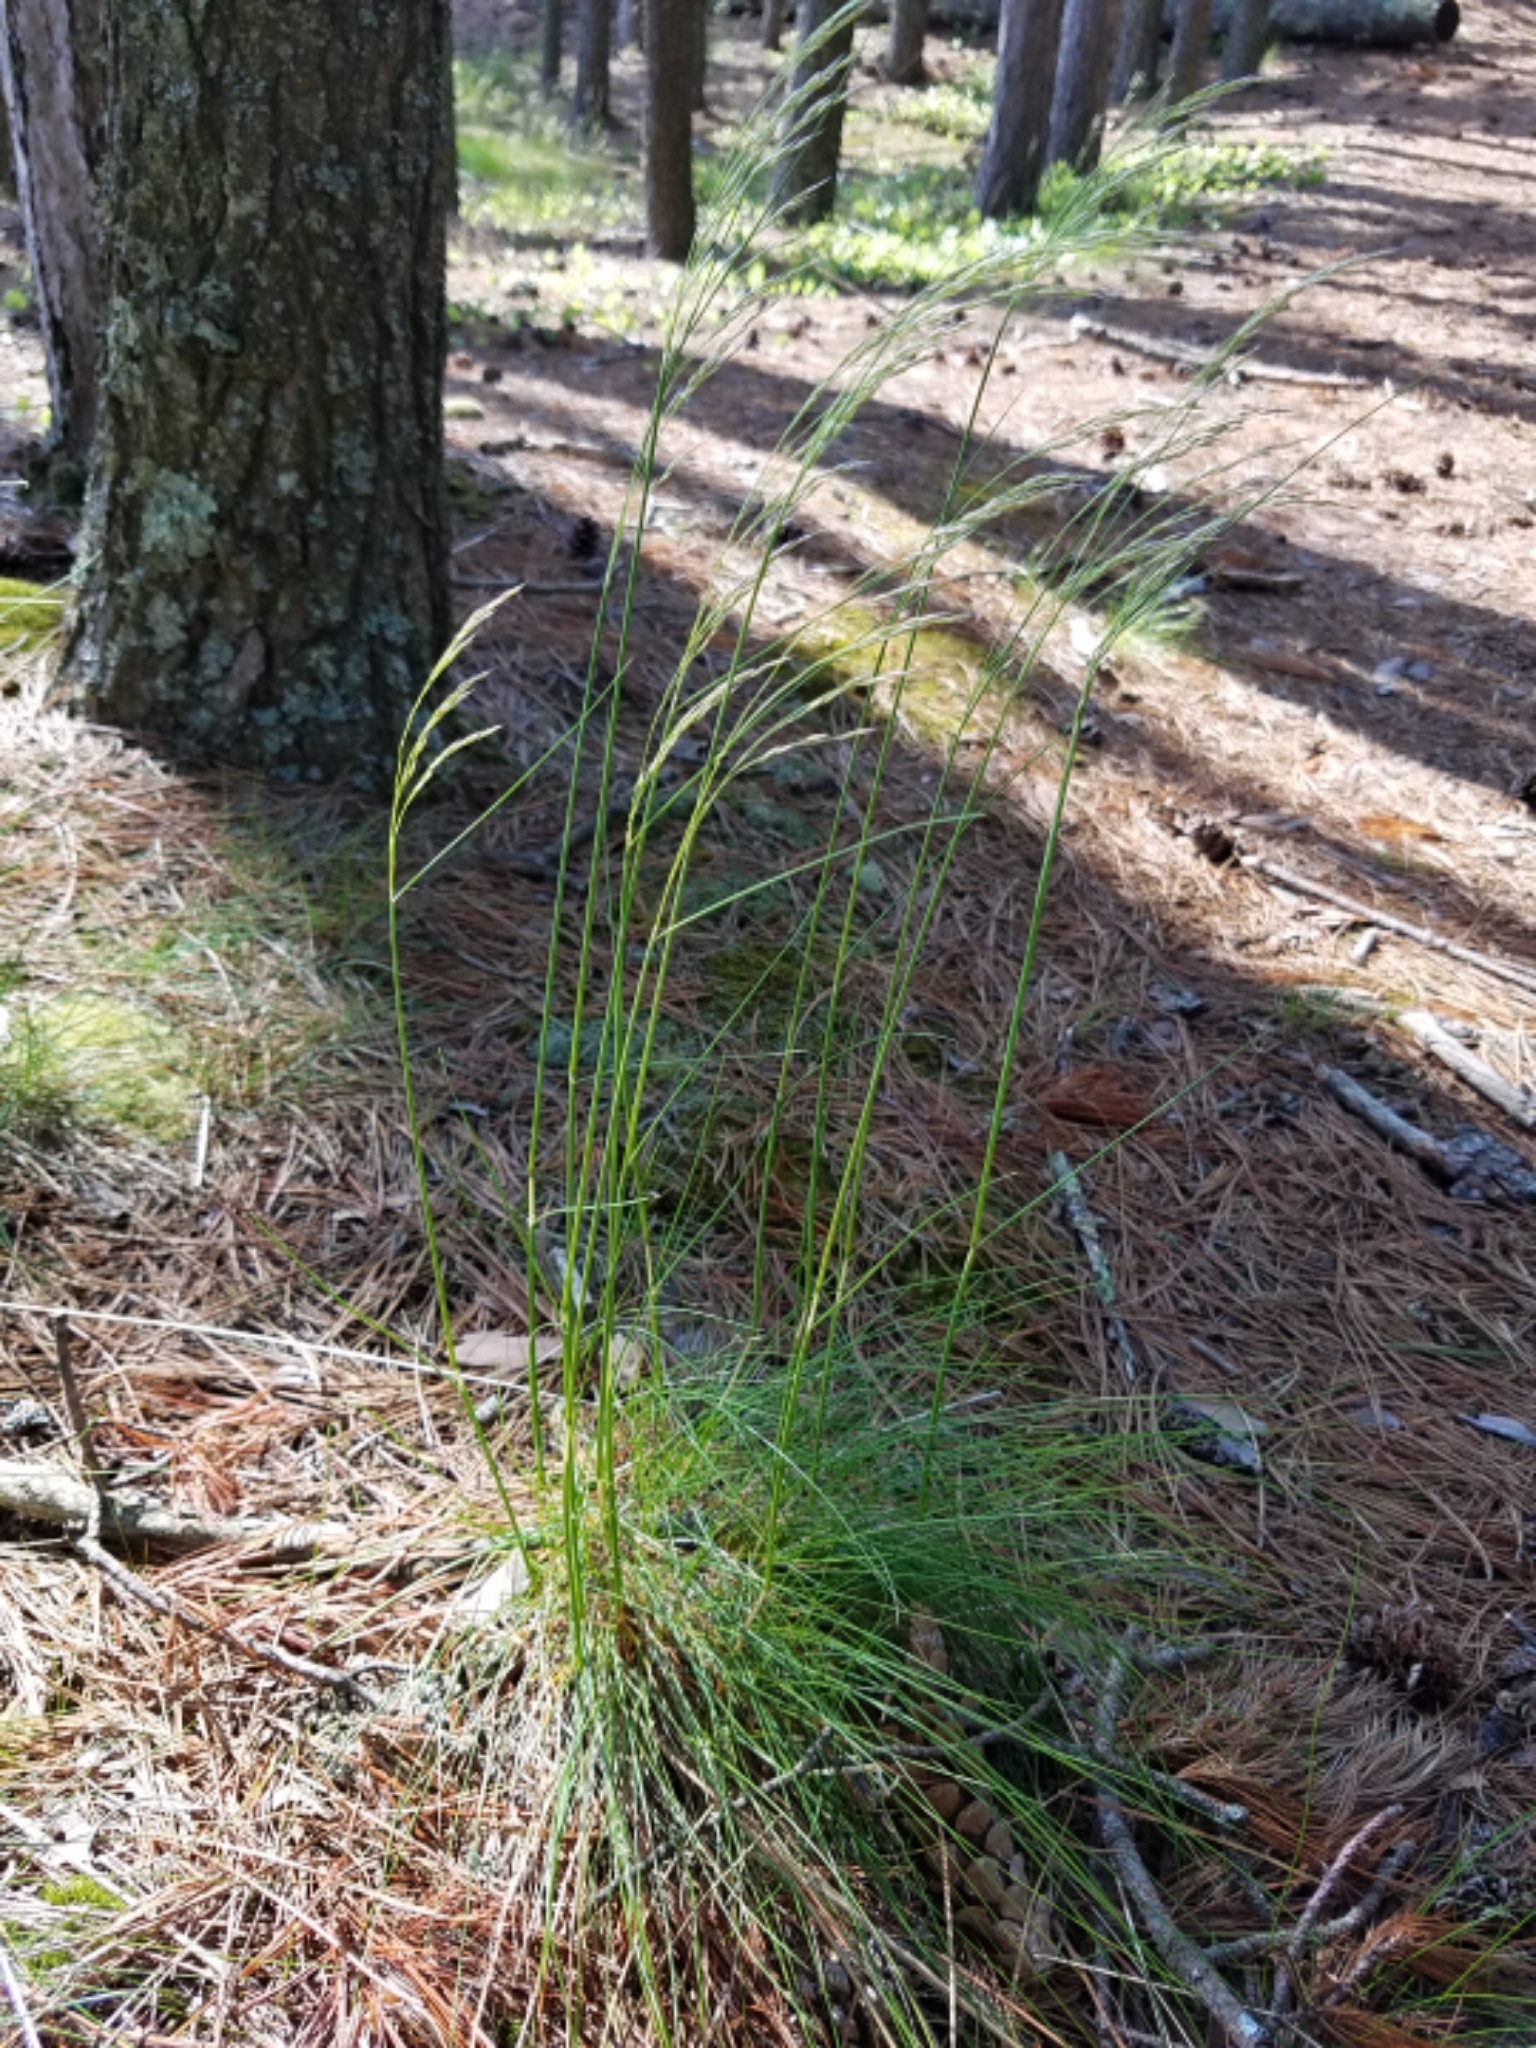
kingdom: Plantae
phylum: Tracheophyta
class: Liliopsida
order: Poales
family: Poaceae
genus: Avenella
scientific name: Avenella flexuosa
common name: Wavy hairgrass
